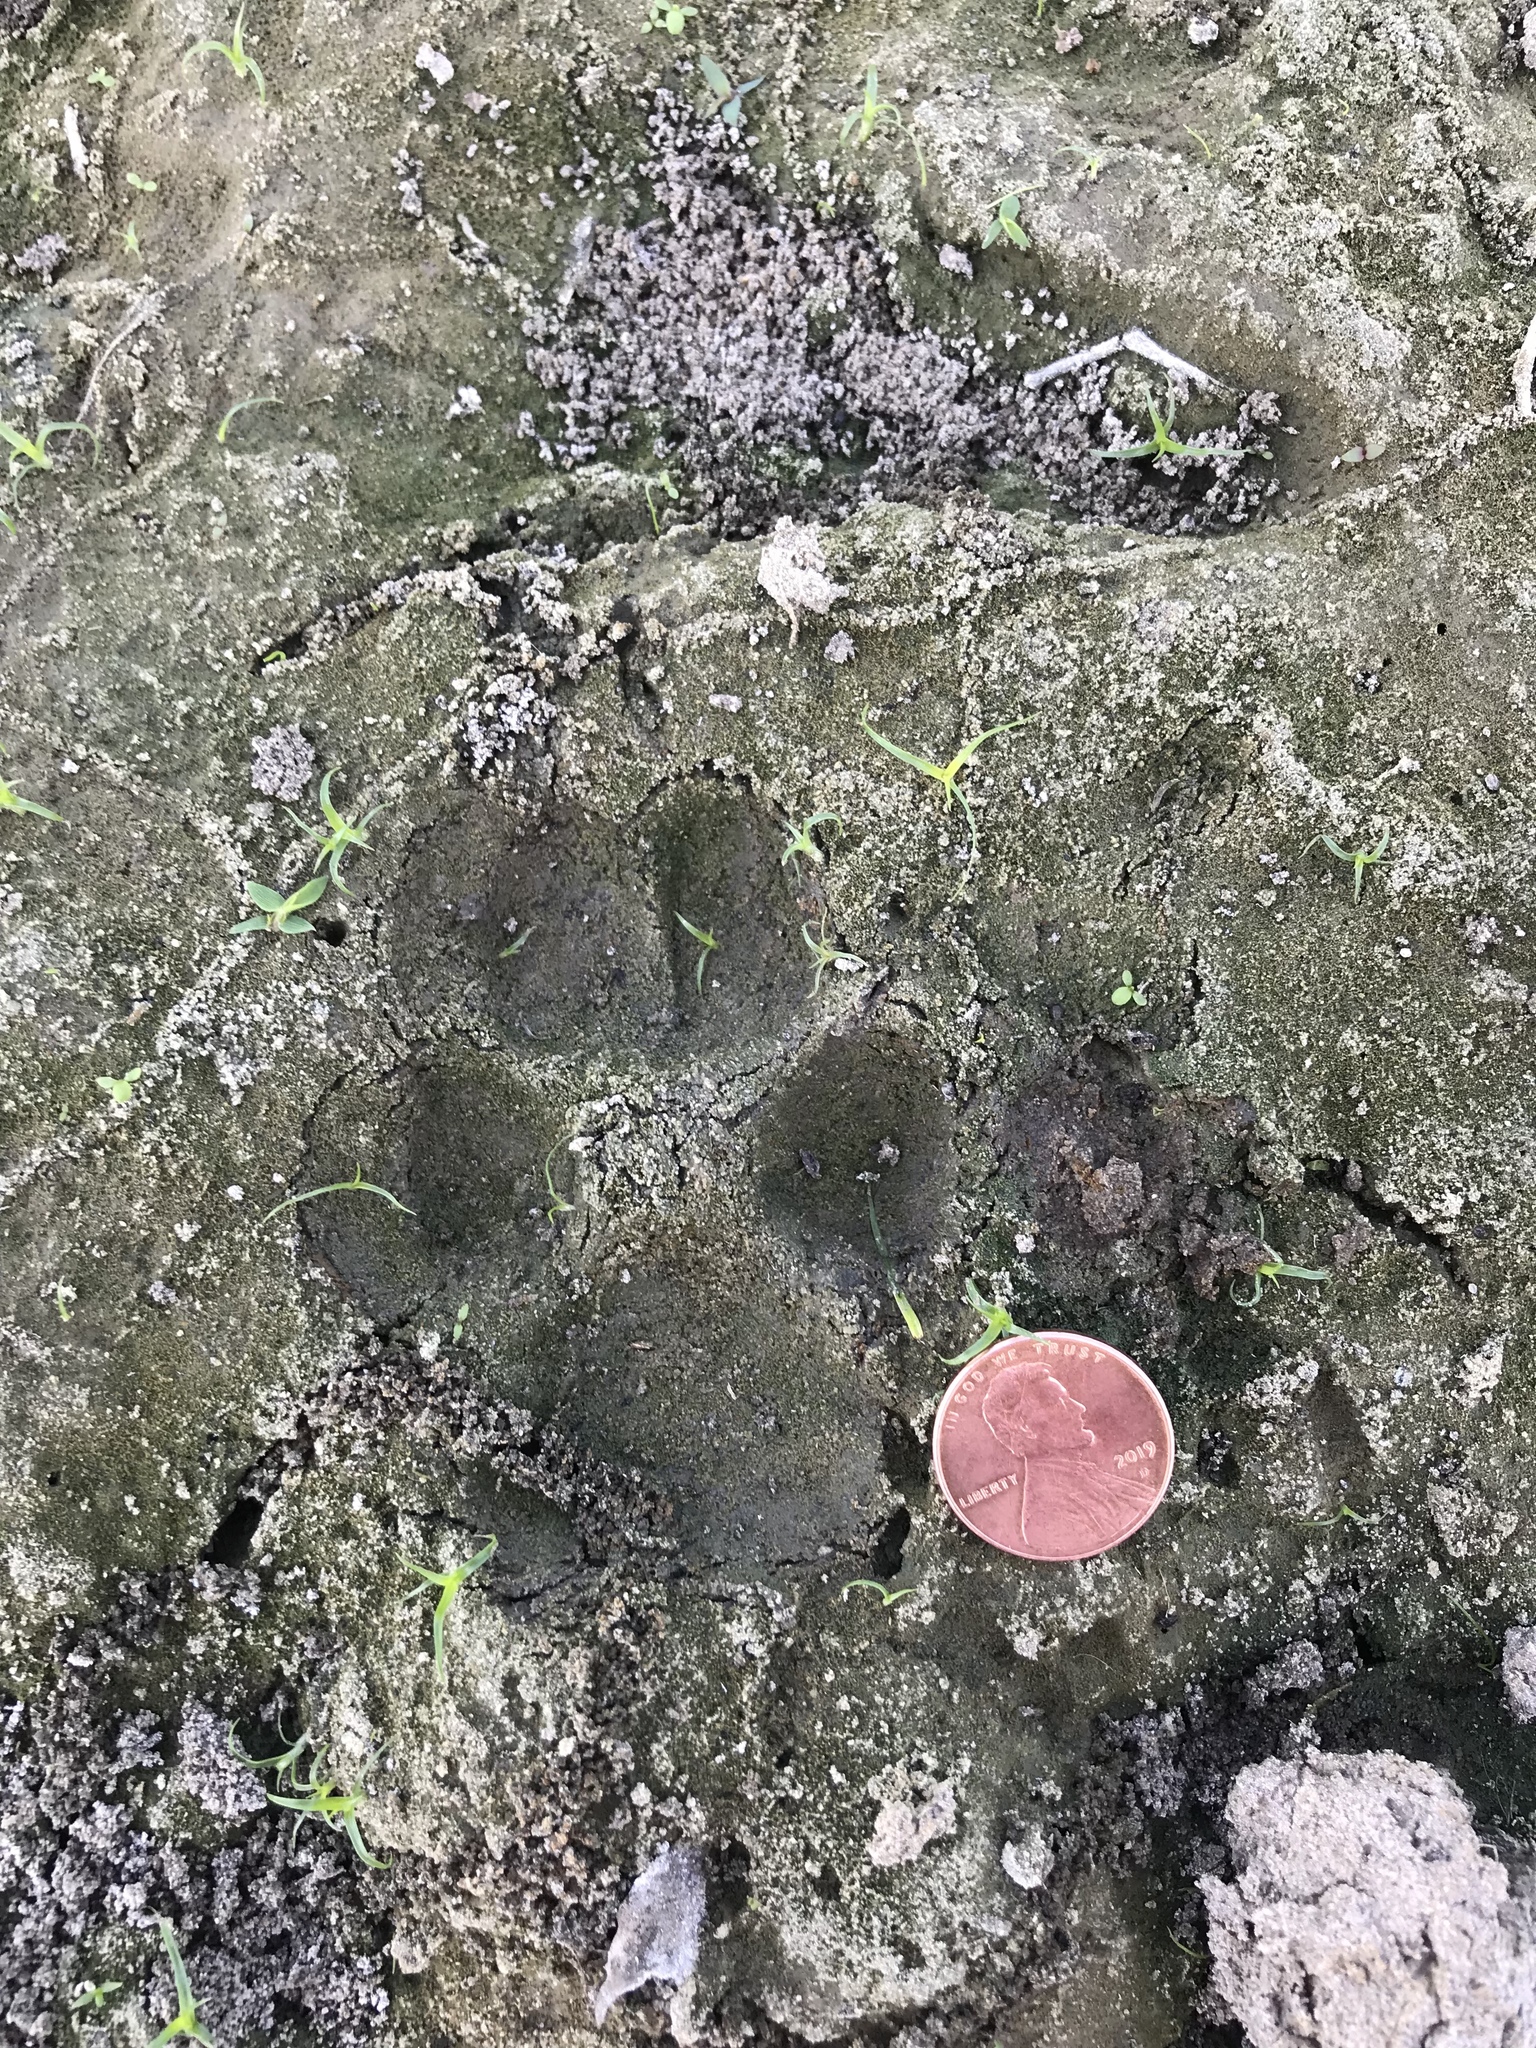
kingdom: Animalia
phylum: Chordata
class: Mammalia
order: Carnivora
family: Canidae
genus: Canis
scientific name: Canis latrans
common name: Coyote
